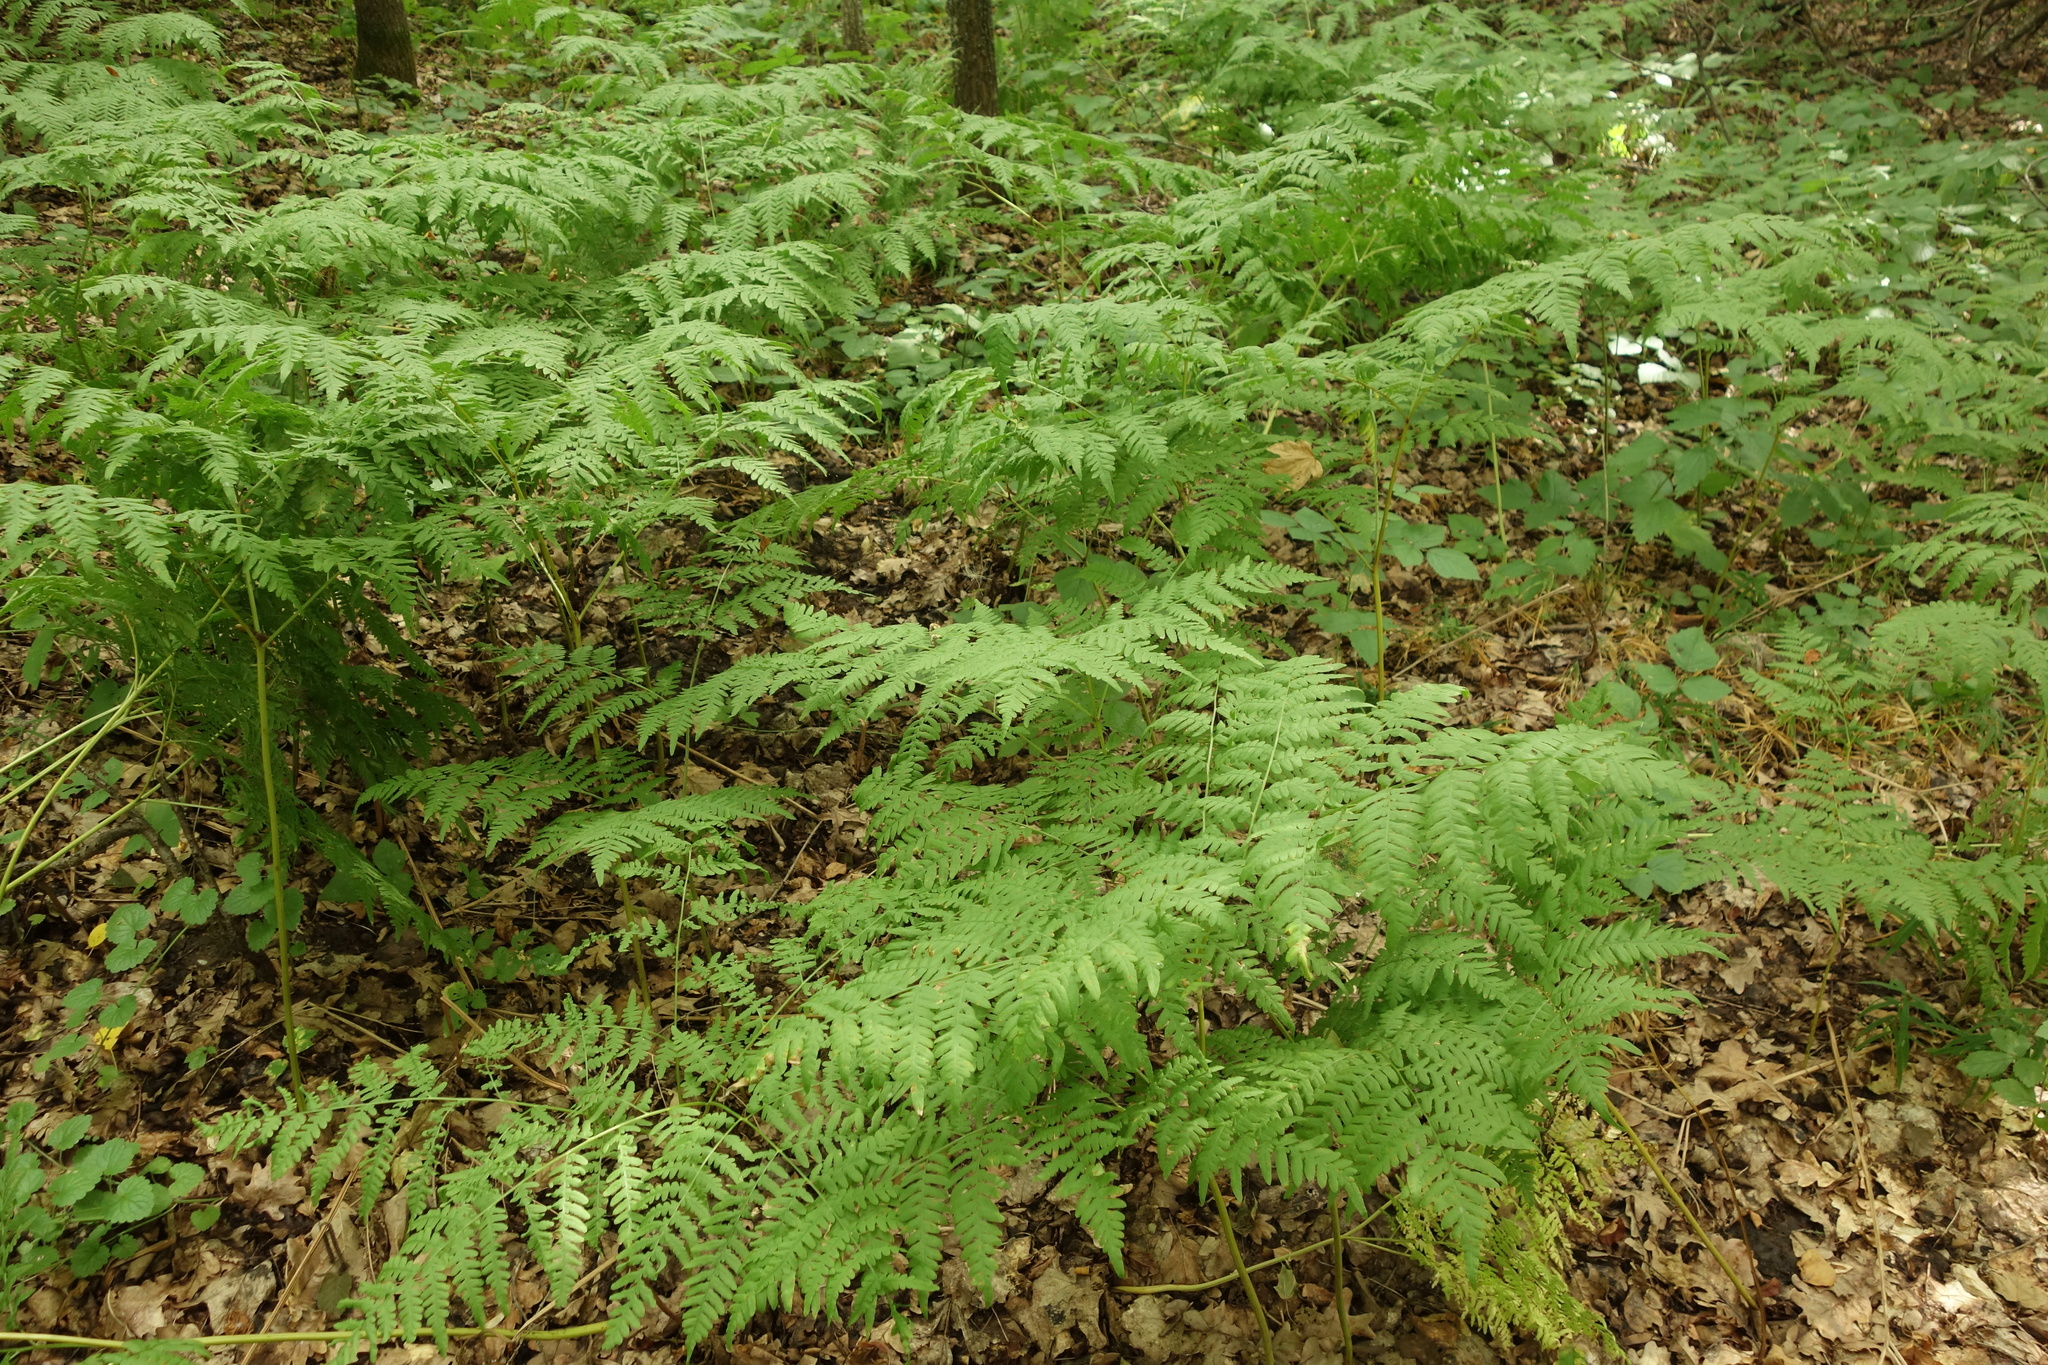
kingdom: Plantae
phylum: Tracheophyta
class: Polypodiopsida
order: Polypodiales
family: Dennstaedtiaceae
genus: Pteridium
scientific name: Pteridium aquilinum
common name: Bracken
